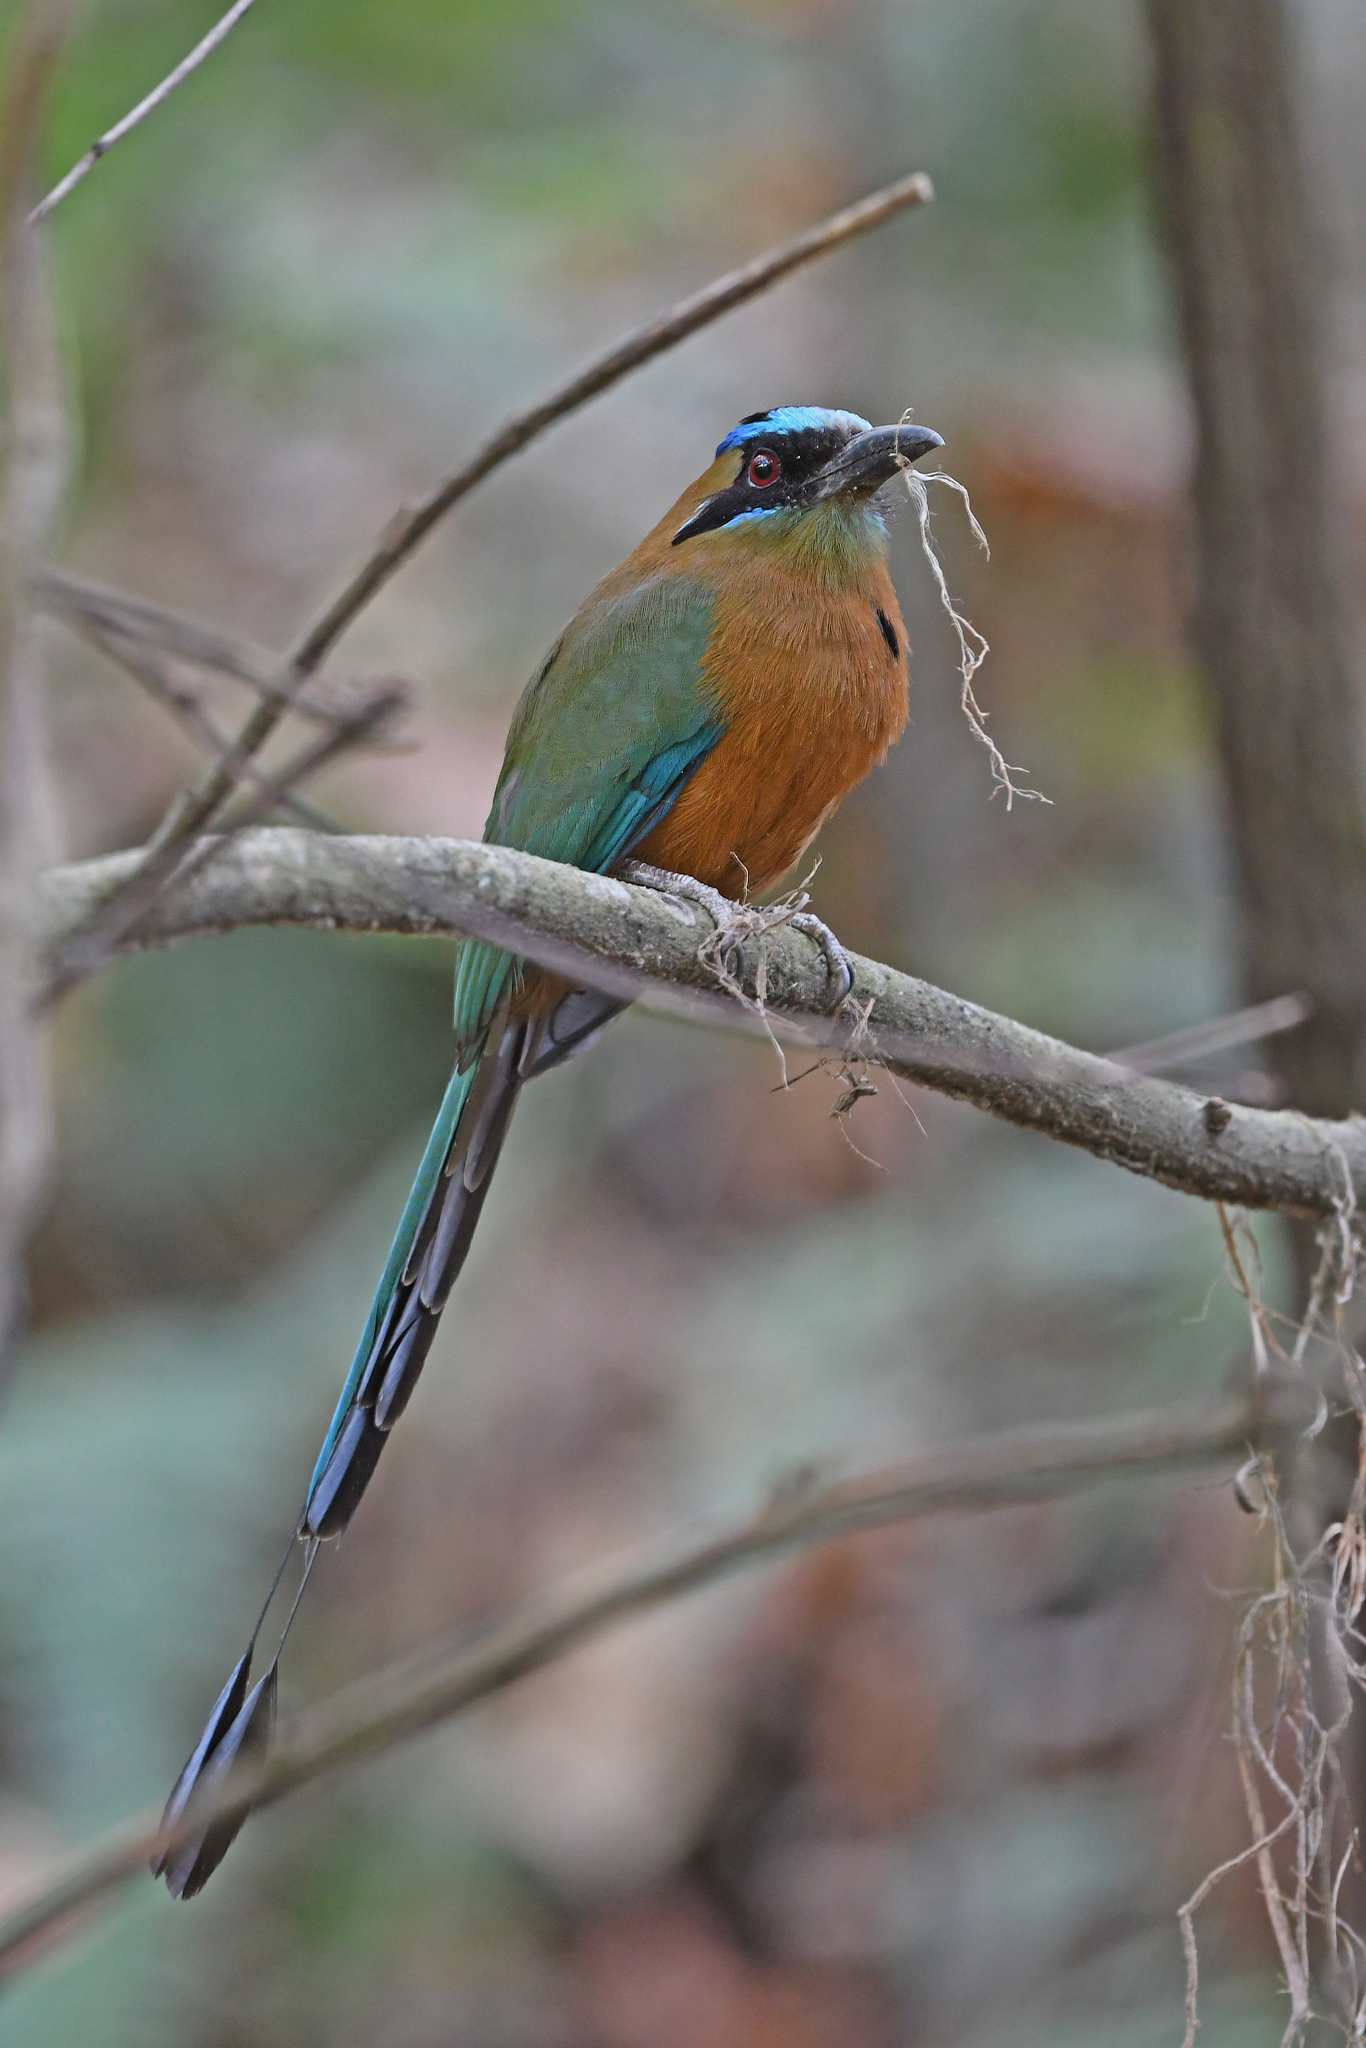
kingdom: Animalia
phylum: Chordata
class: Aves
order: Coraciiformes
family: Momotidae
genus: Momotus
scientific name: Momotus subrufescens
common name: Whooping motmot
